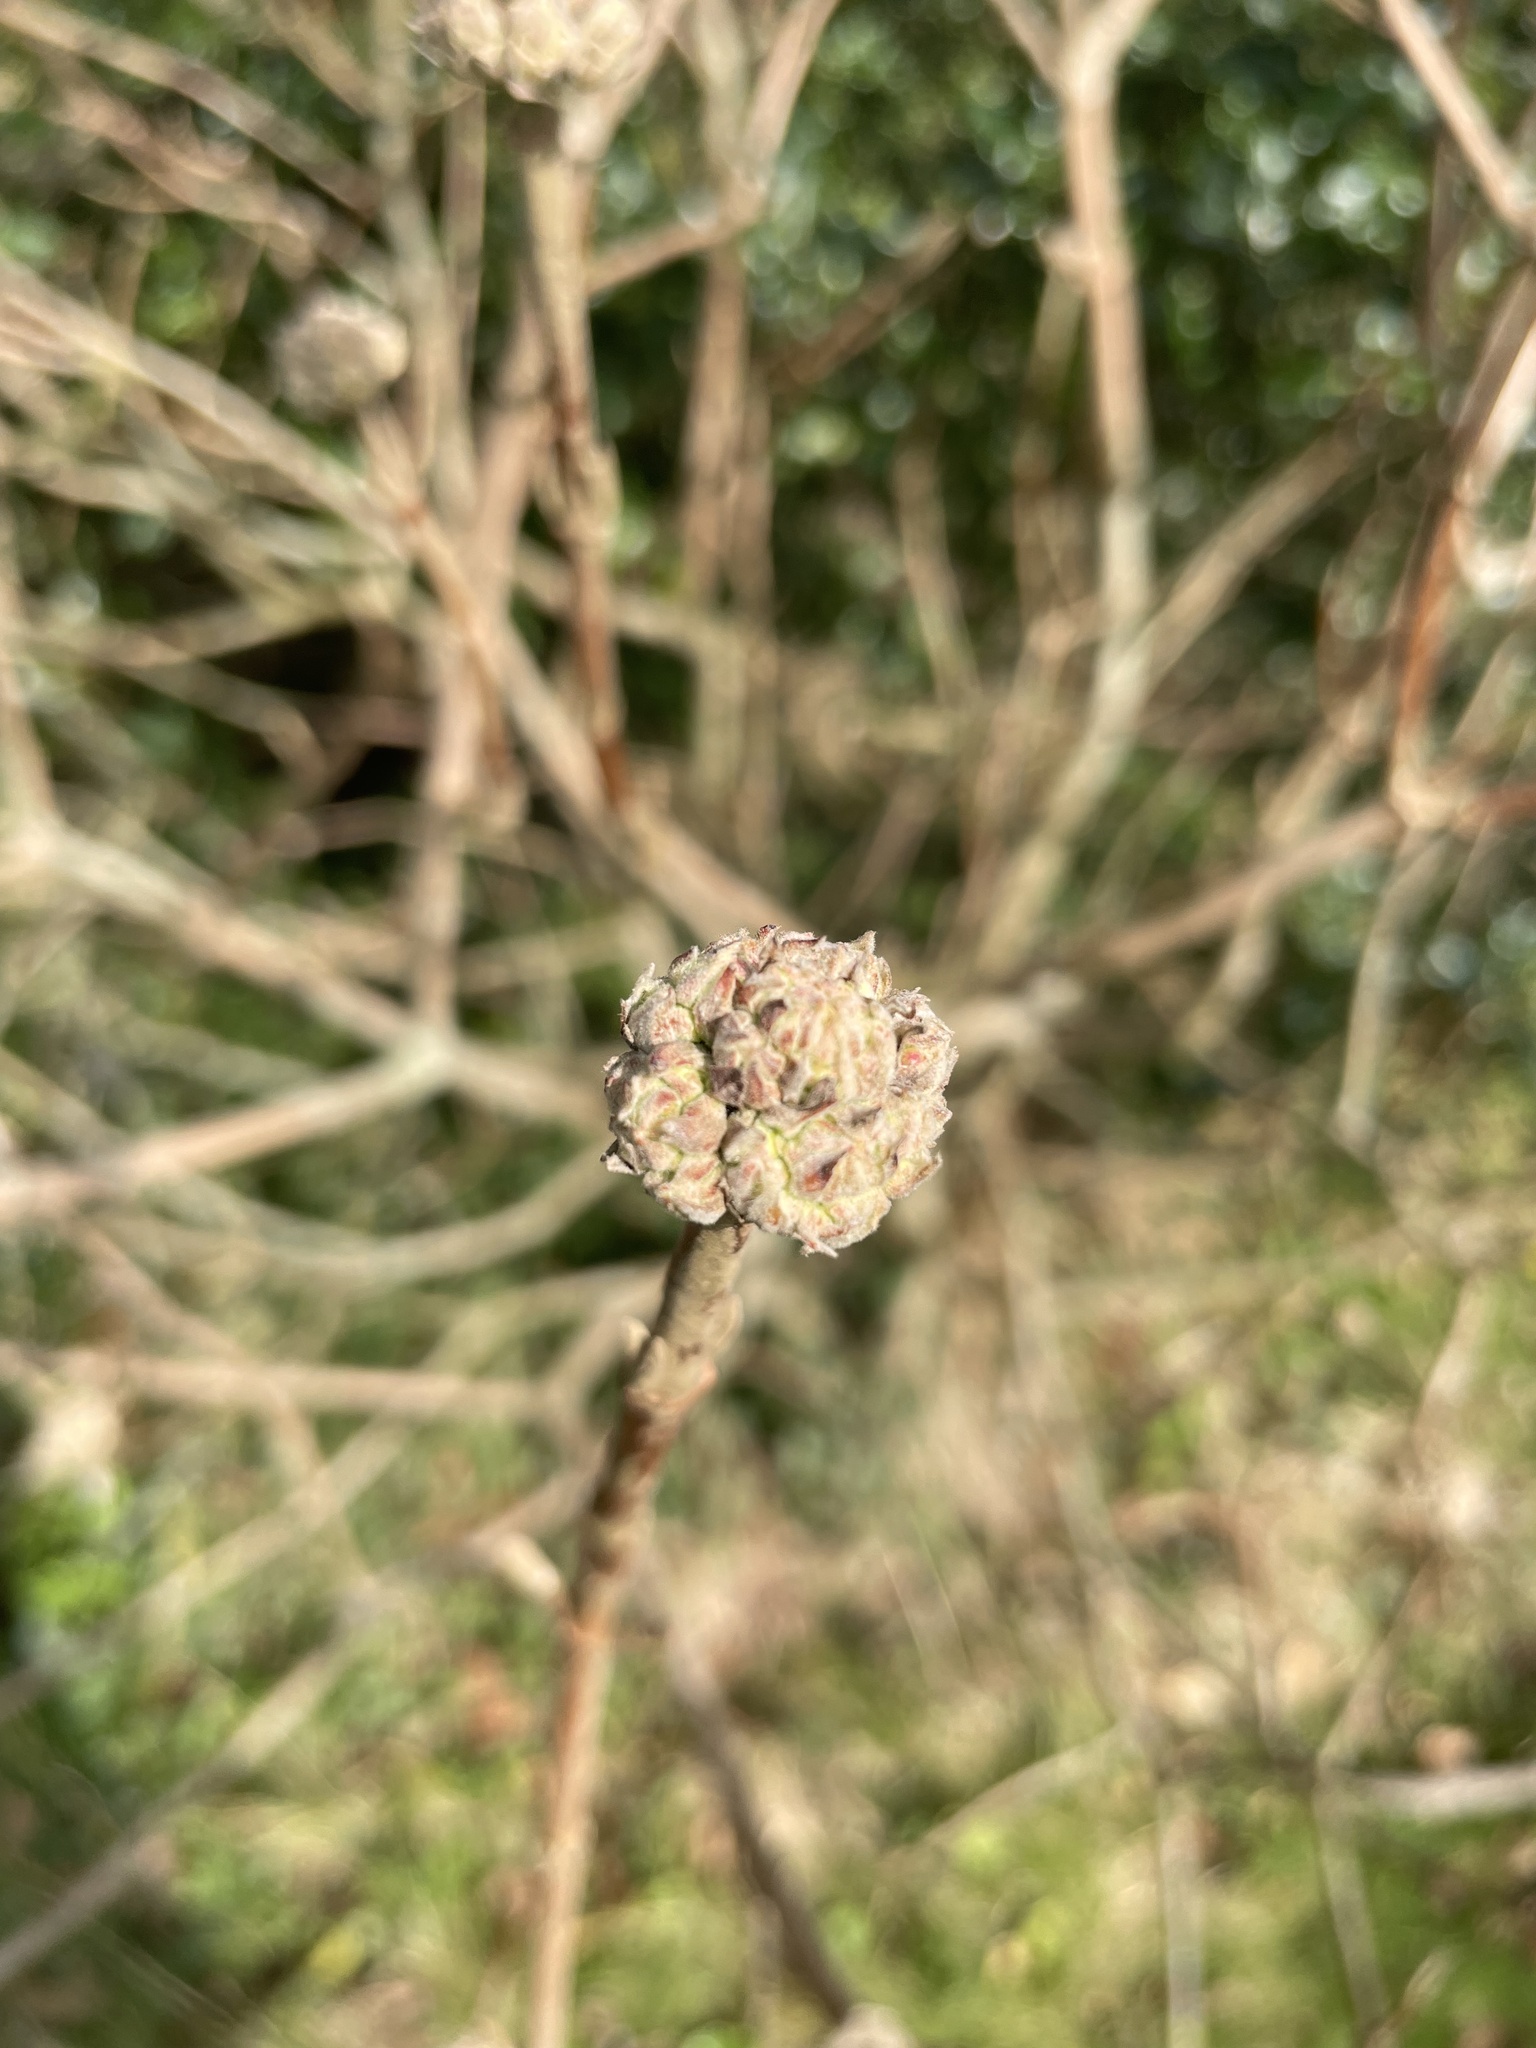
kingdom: Plantae
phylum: Tracheophyta
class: Magnoliopsida
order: Dipsacales
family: Viburnaceae
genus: Viburnum
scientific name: Viburnum lantana
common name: Wayfaring tree
